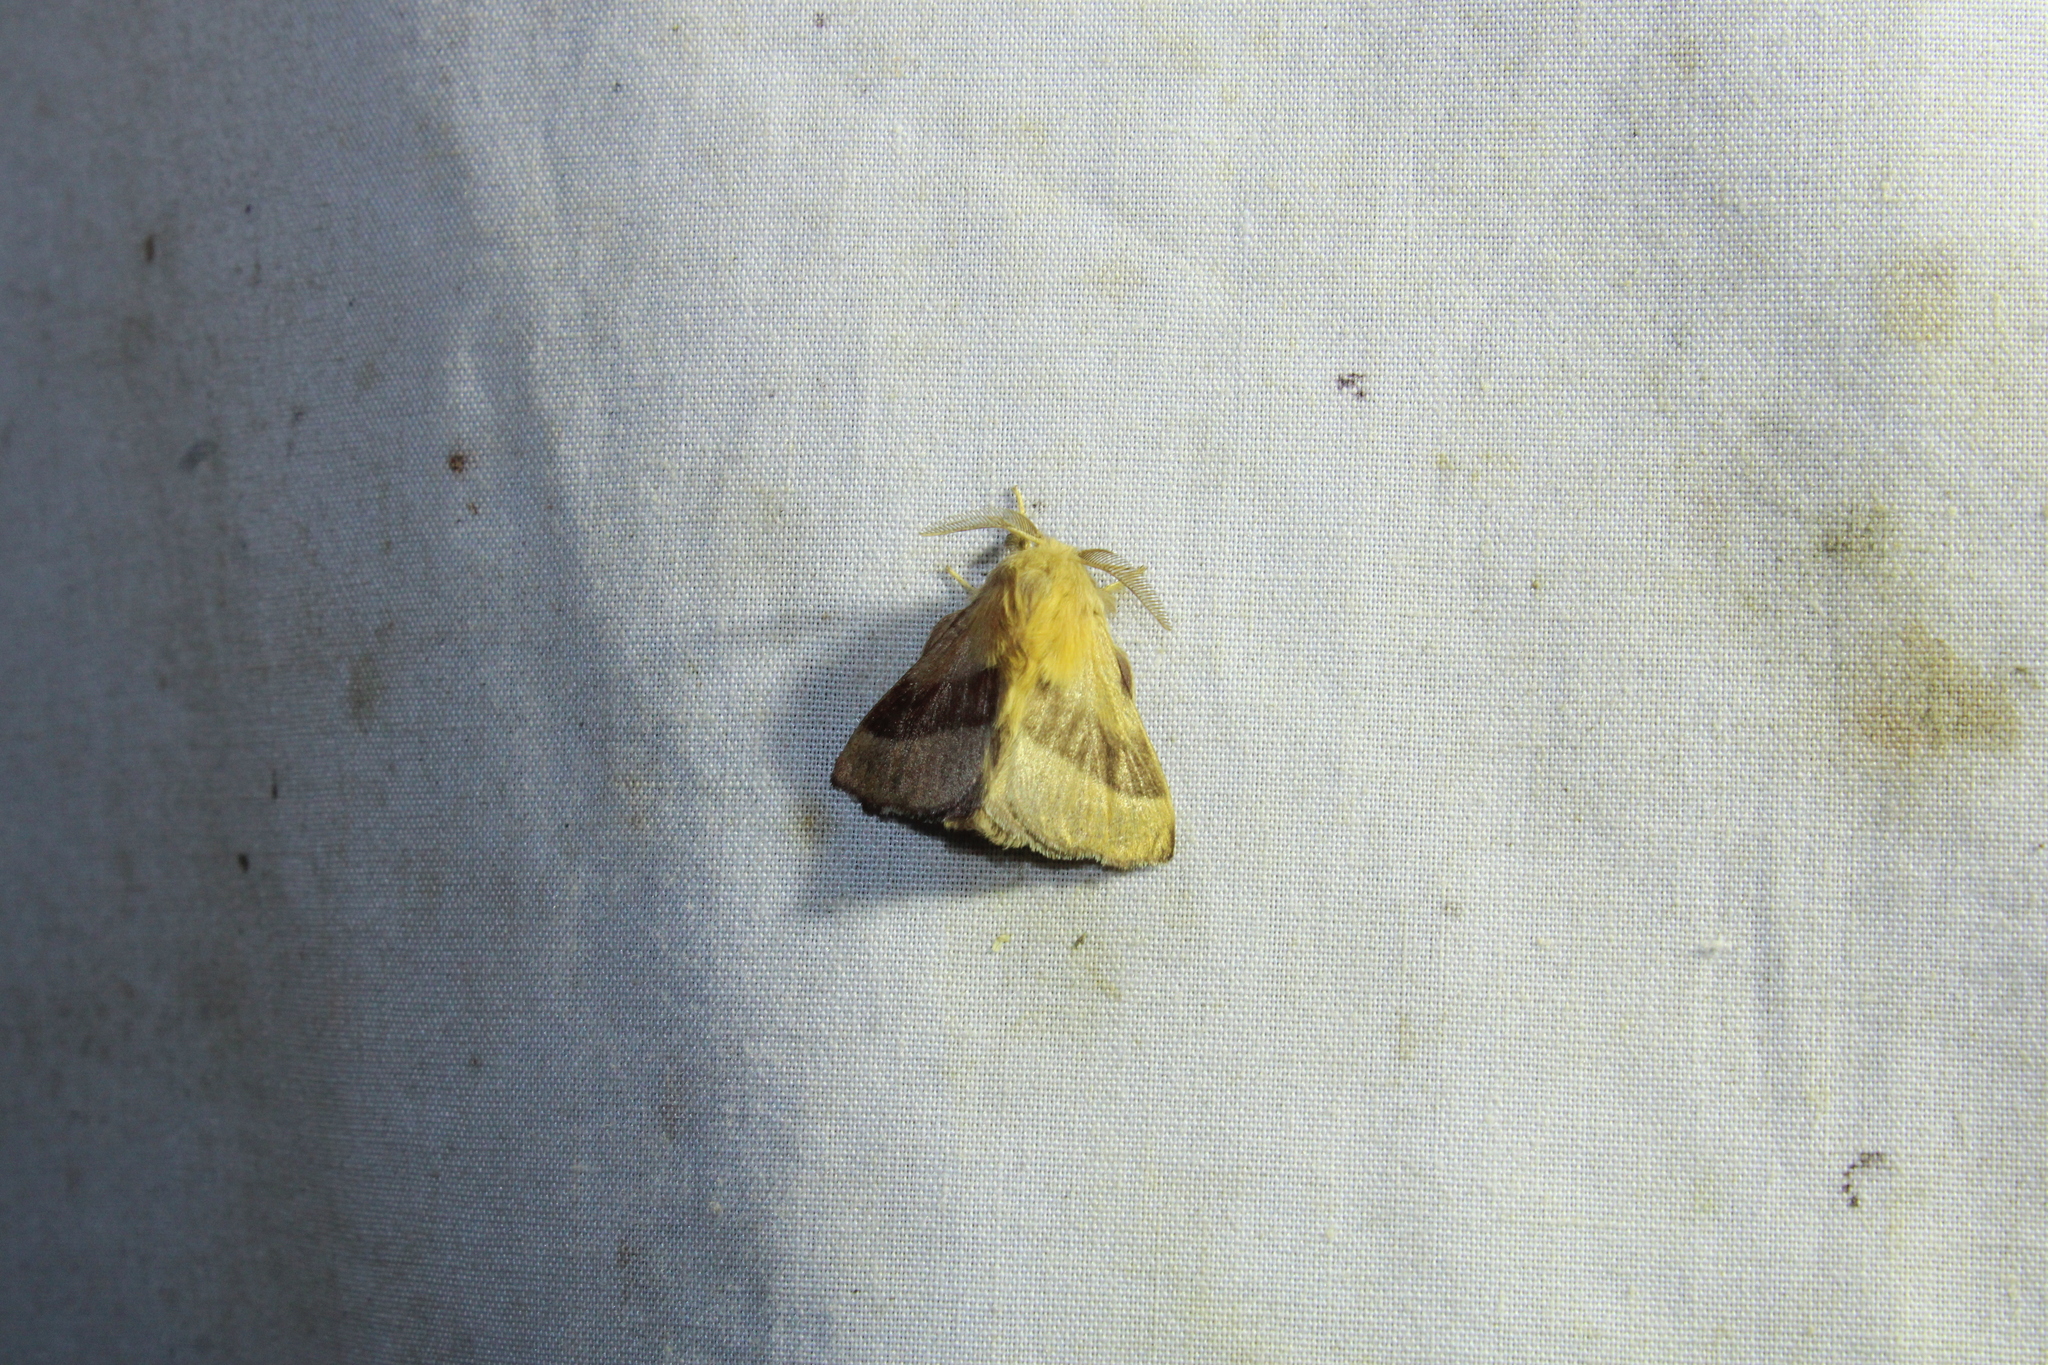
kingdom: Animalia
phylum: Arthropoda
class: Insecta
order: Lepidoptera
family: Lasiocampidae
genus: Malacosoma
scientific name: Malacosoma disstria
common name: Forest tent caterpillar
